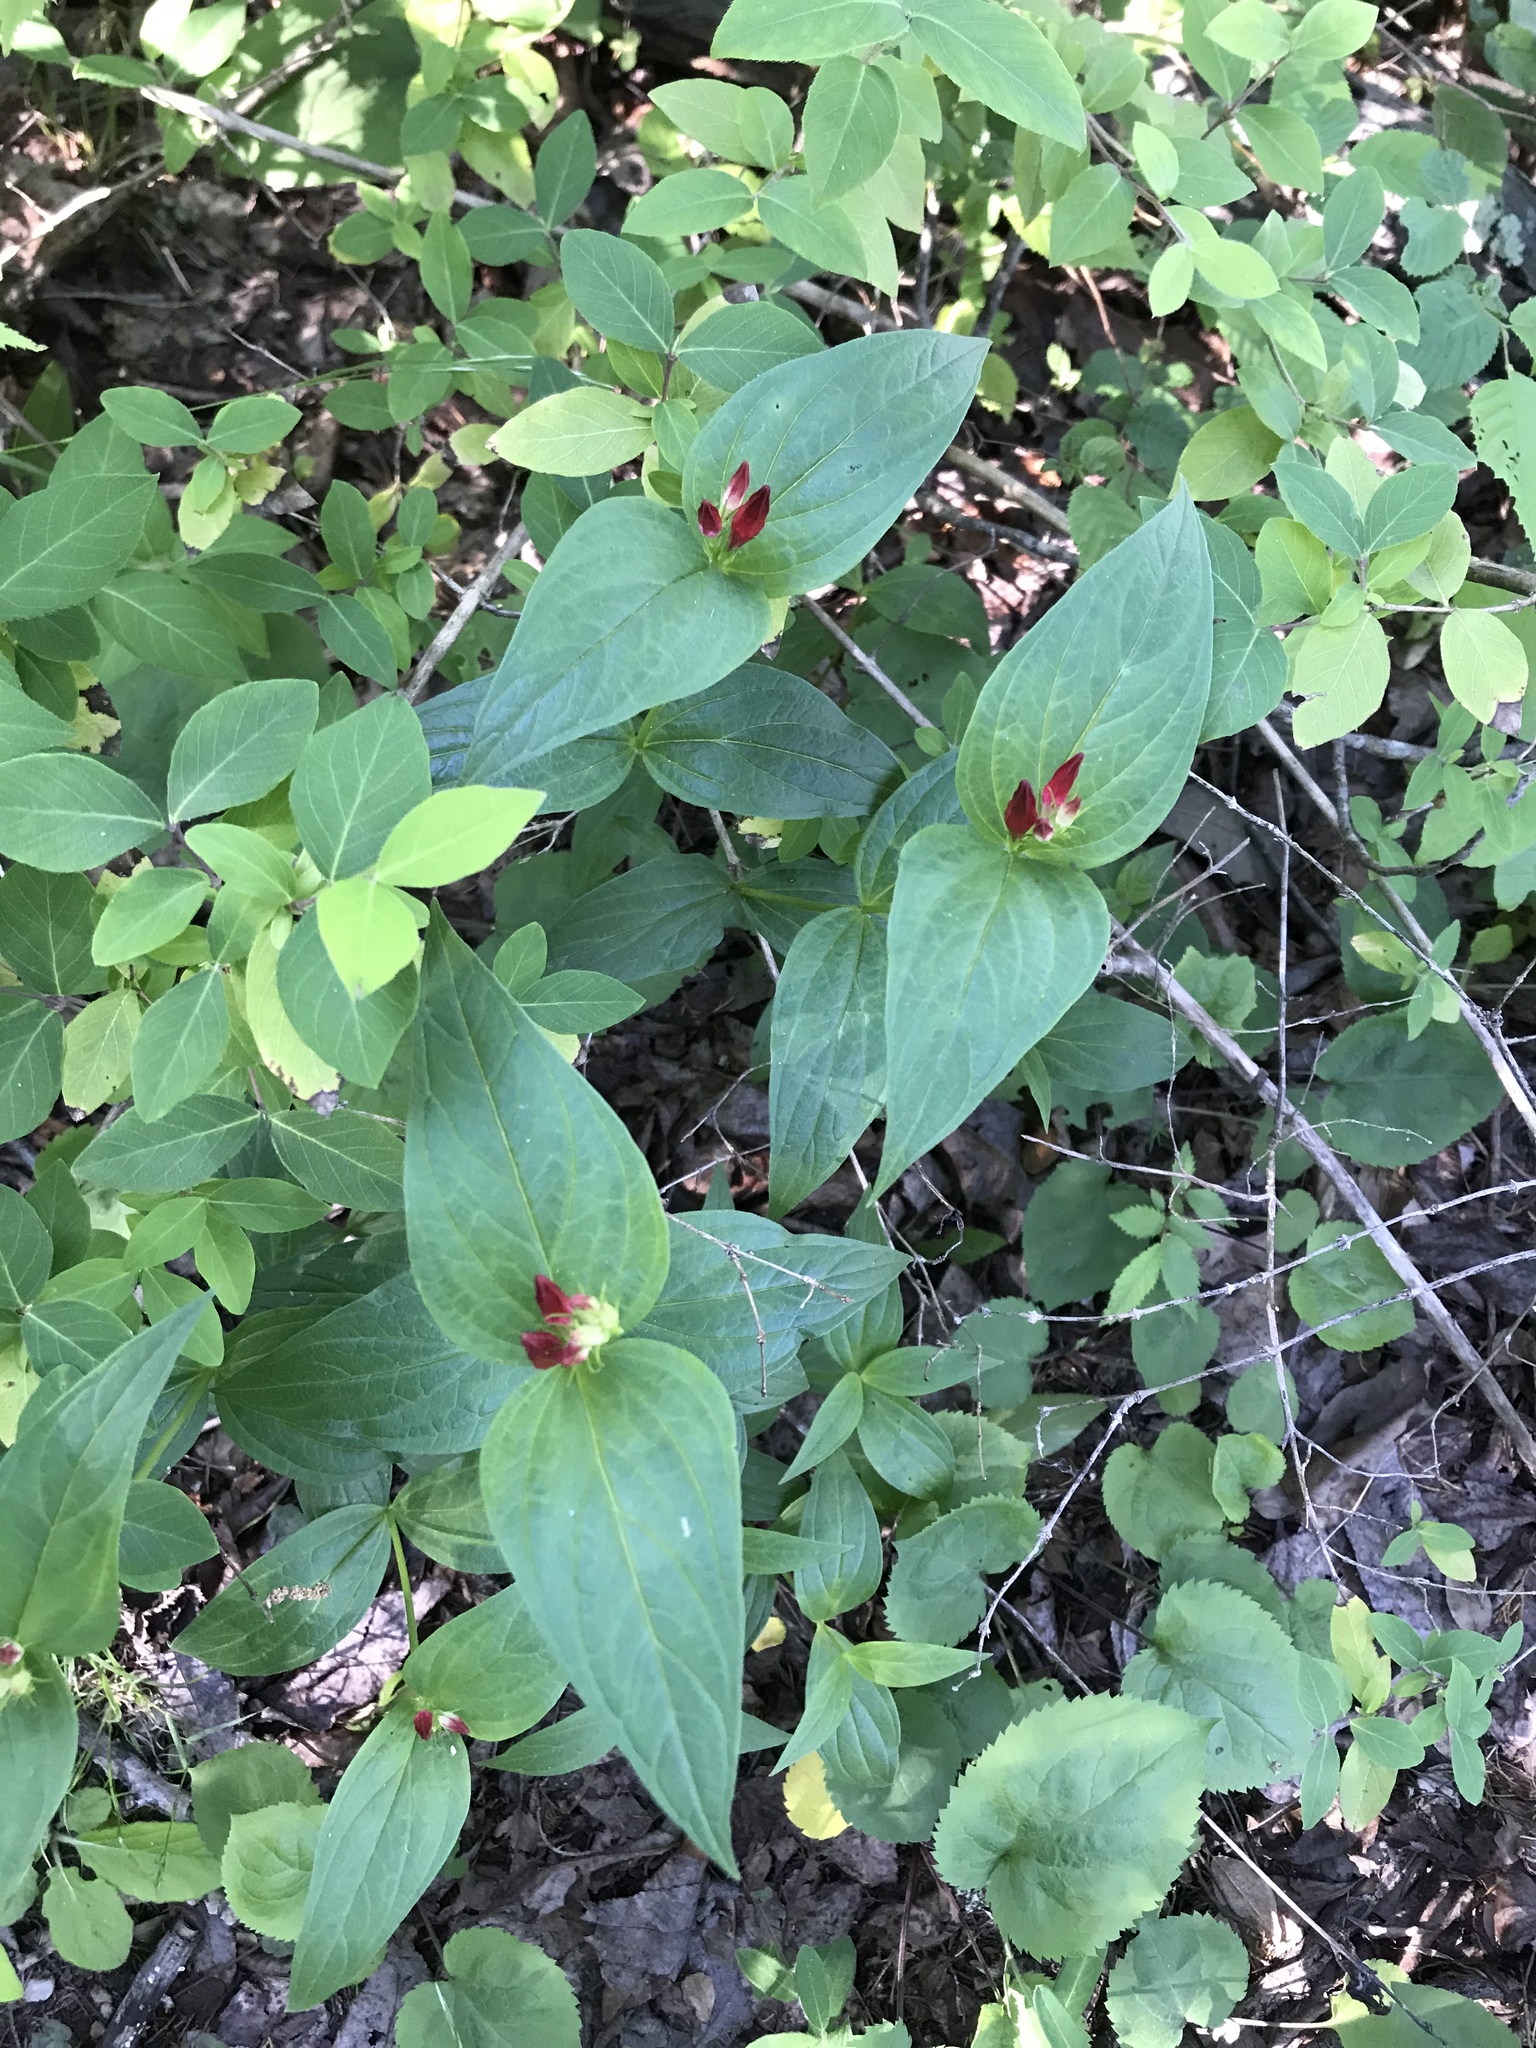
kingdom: Plantae
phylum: Tracheophyta
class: Magnoliopsida
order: Gentianales
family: Loganiaceae
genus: Spigelia
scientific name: Spigelia marilandica
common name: Indian-pink
